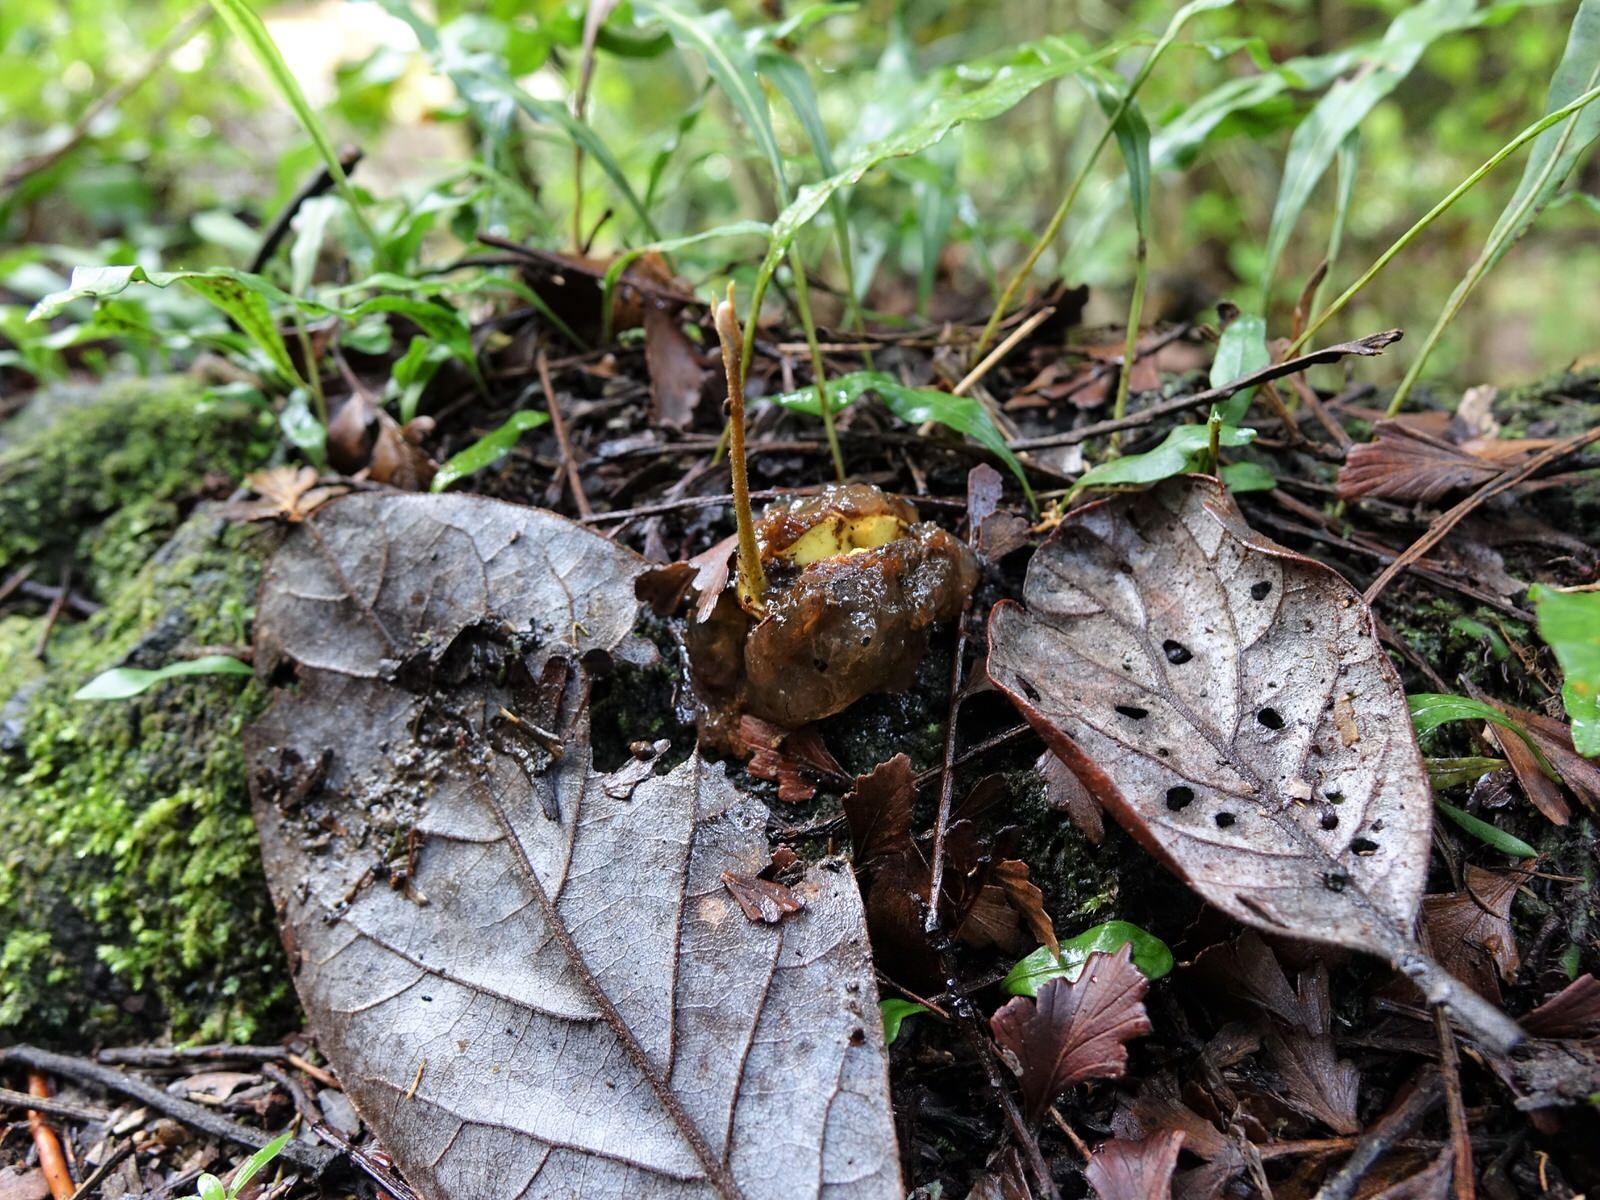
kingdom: Plantae
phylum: Tracheophyta
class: Magnoliopsida
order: Laurales
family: Lauraceae
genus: Beilschmiedia
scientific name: Beilschmiedia tarairi
